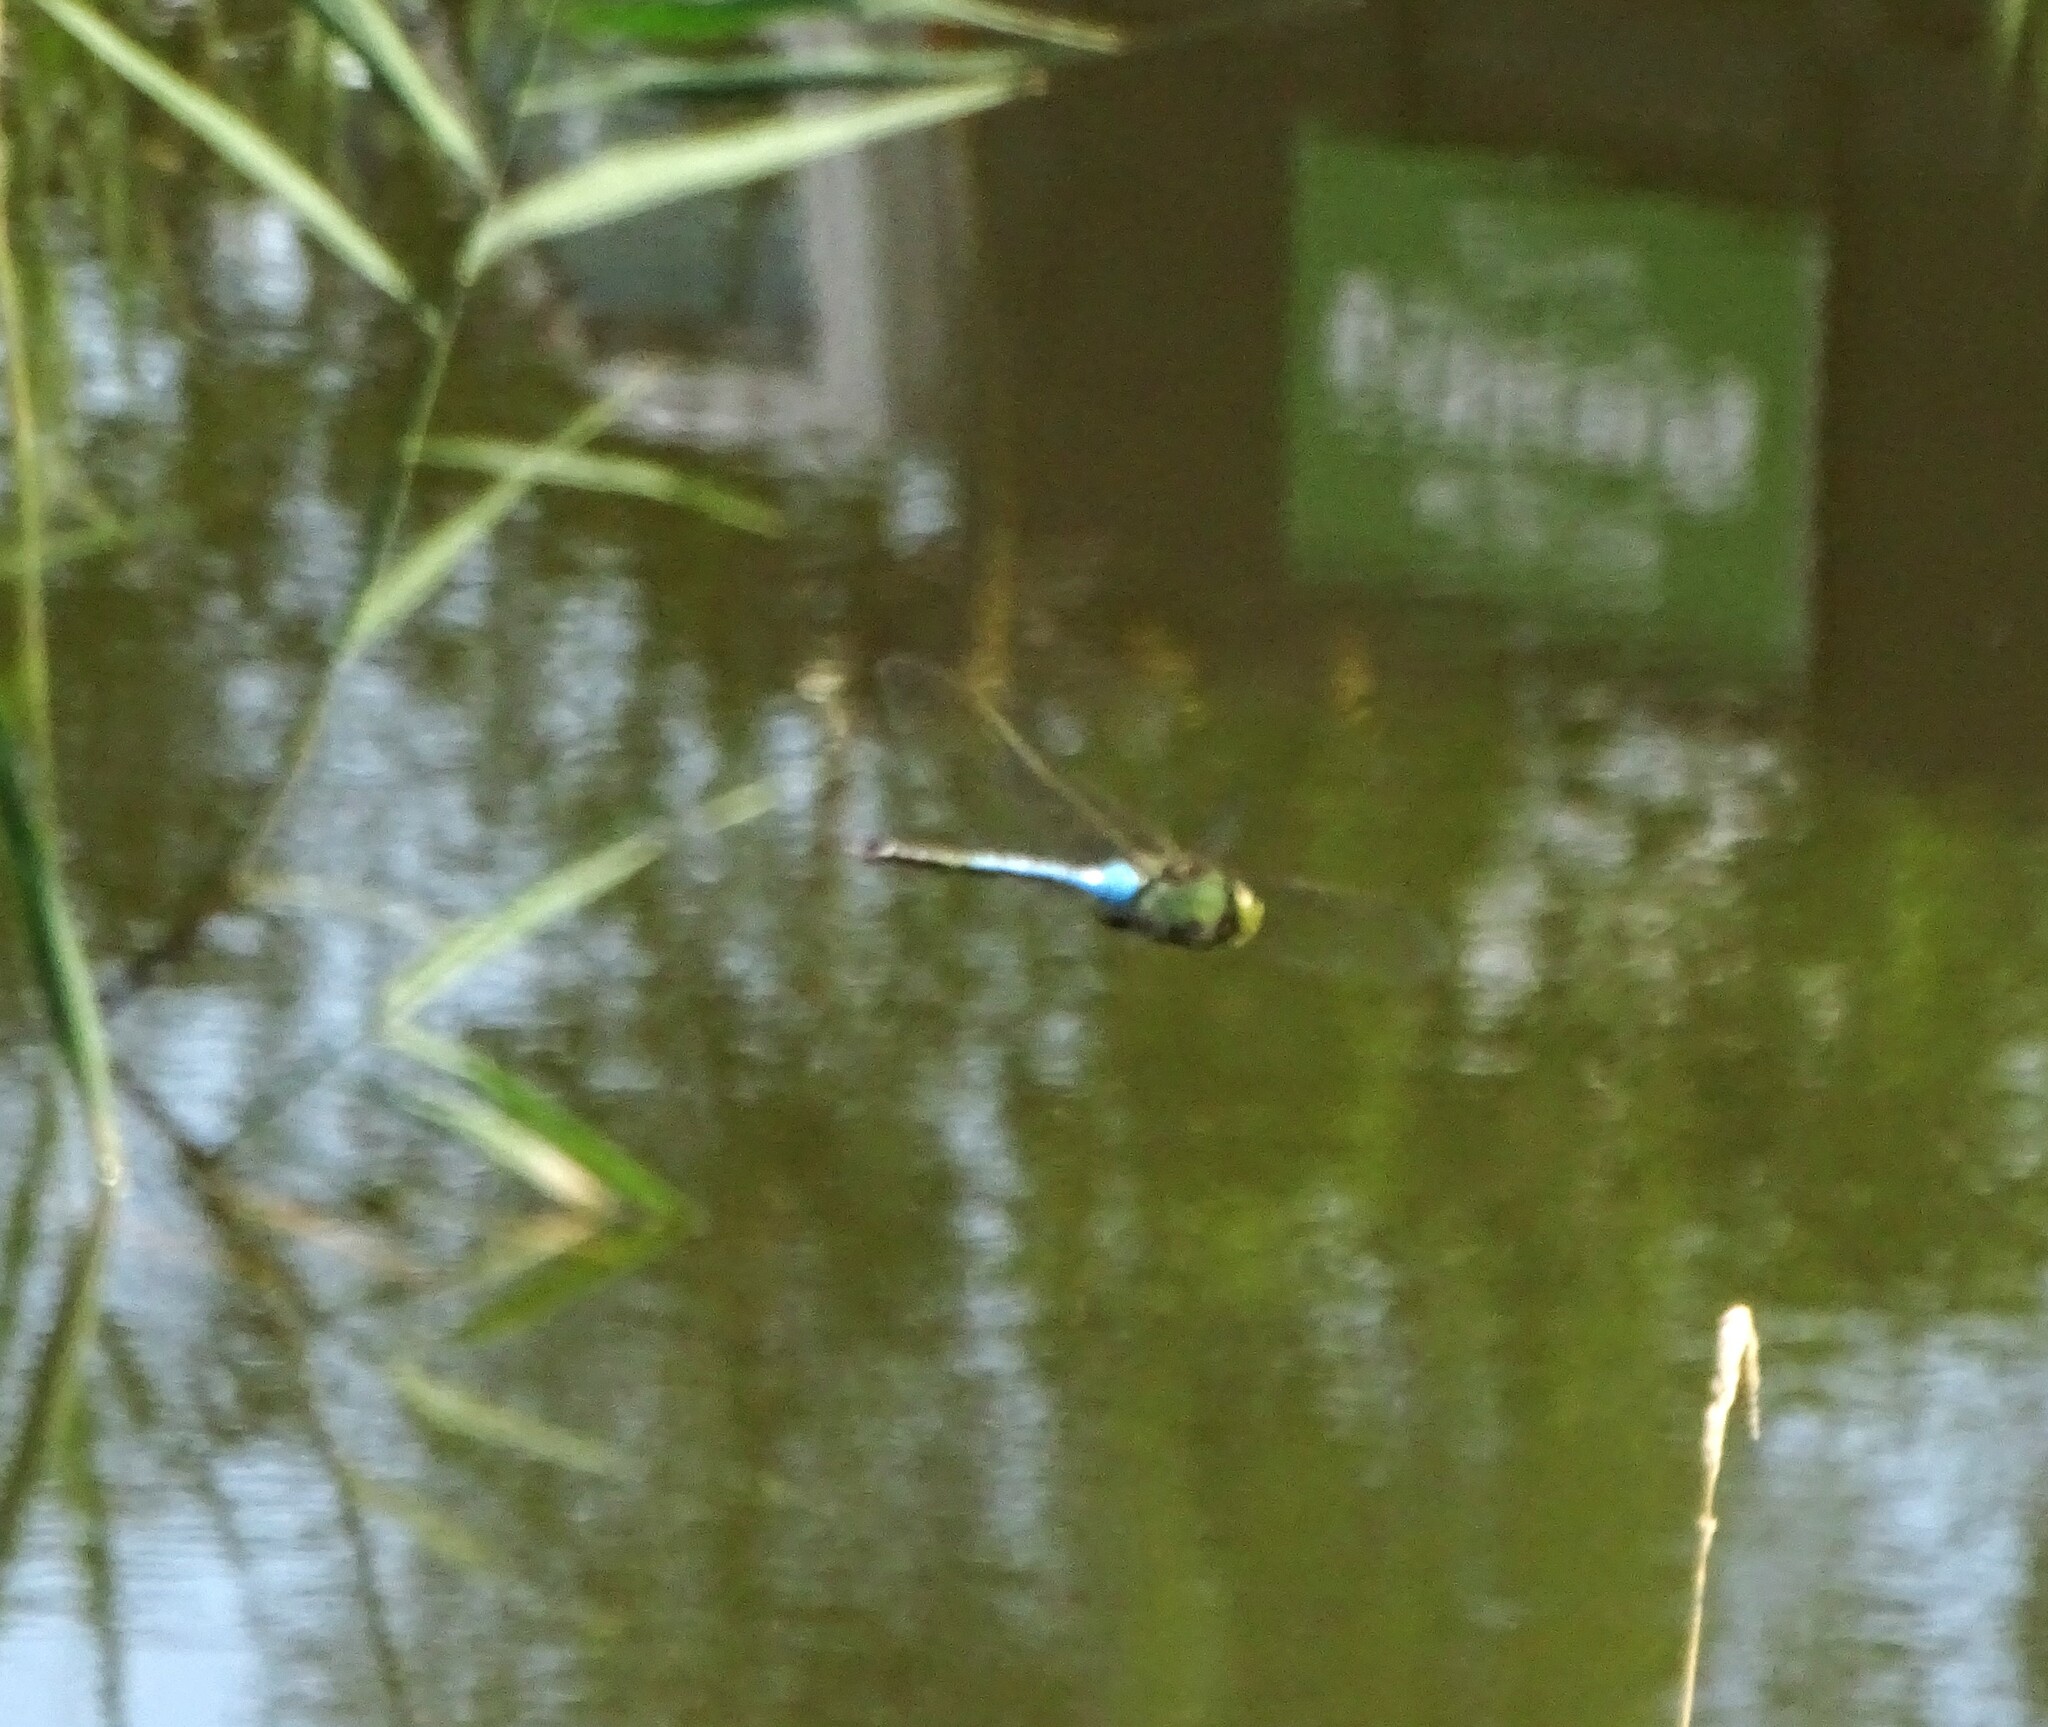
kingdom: Animalia
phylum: Arthropoda
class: Insecta
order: Odonata
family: Aeshnidae
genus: Anax
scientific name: Anax junius
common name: Common green darner
